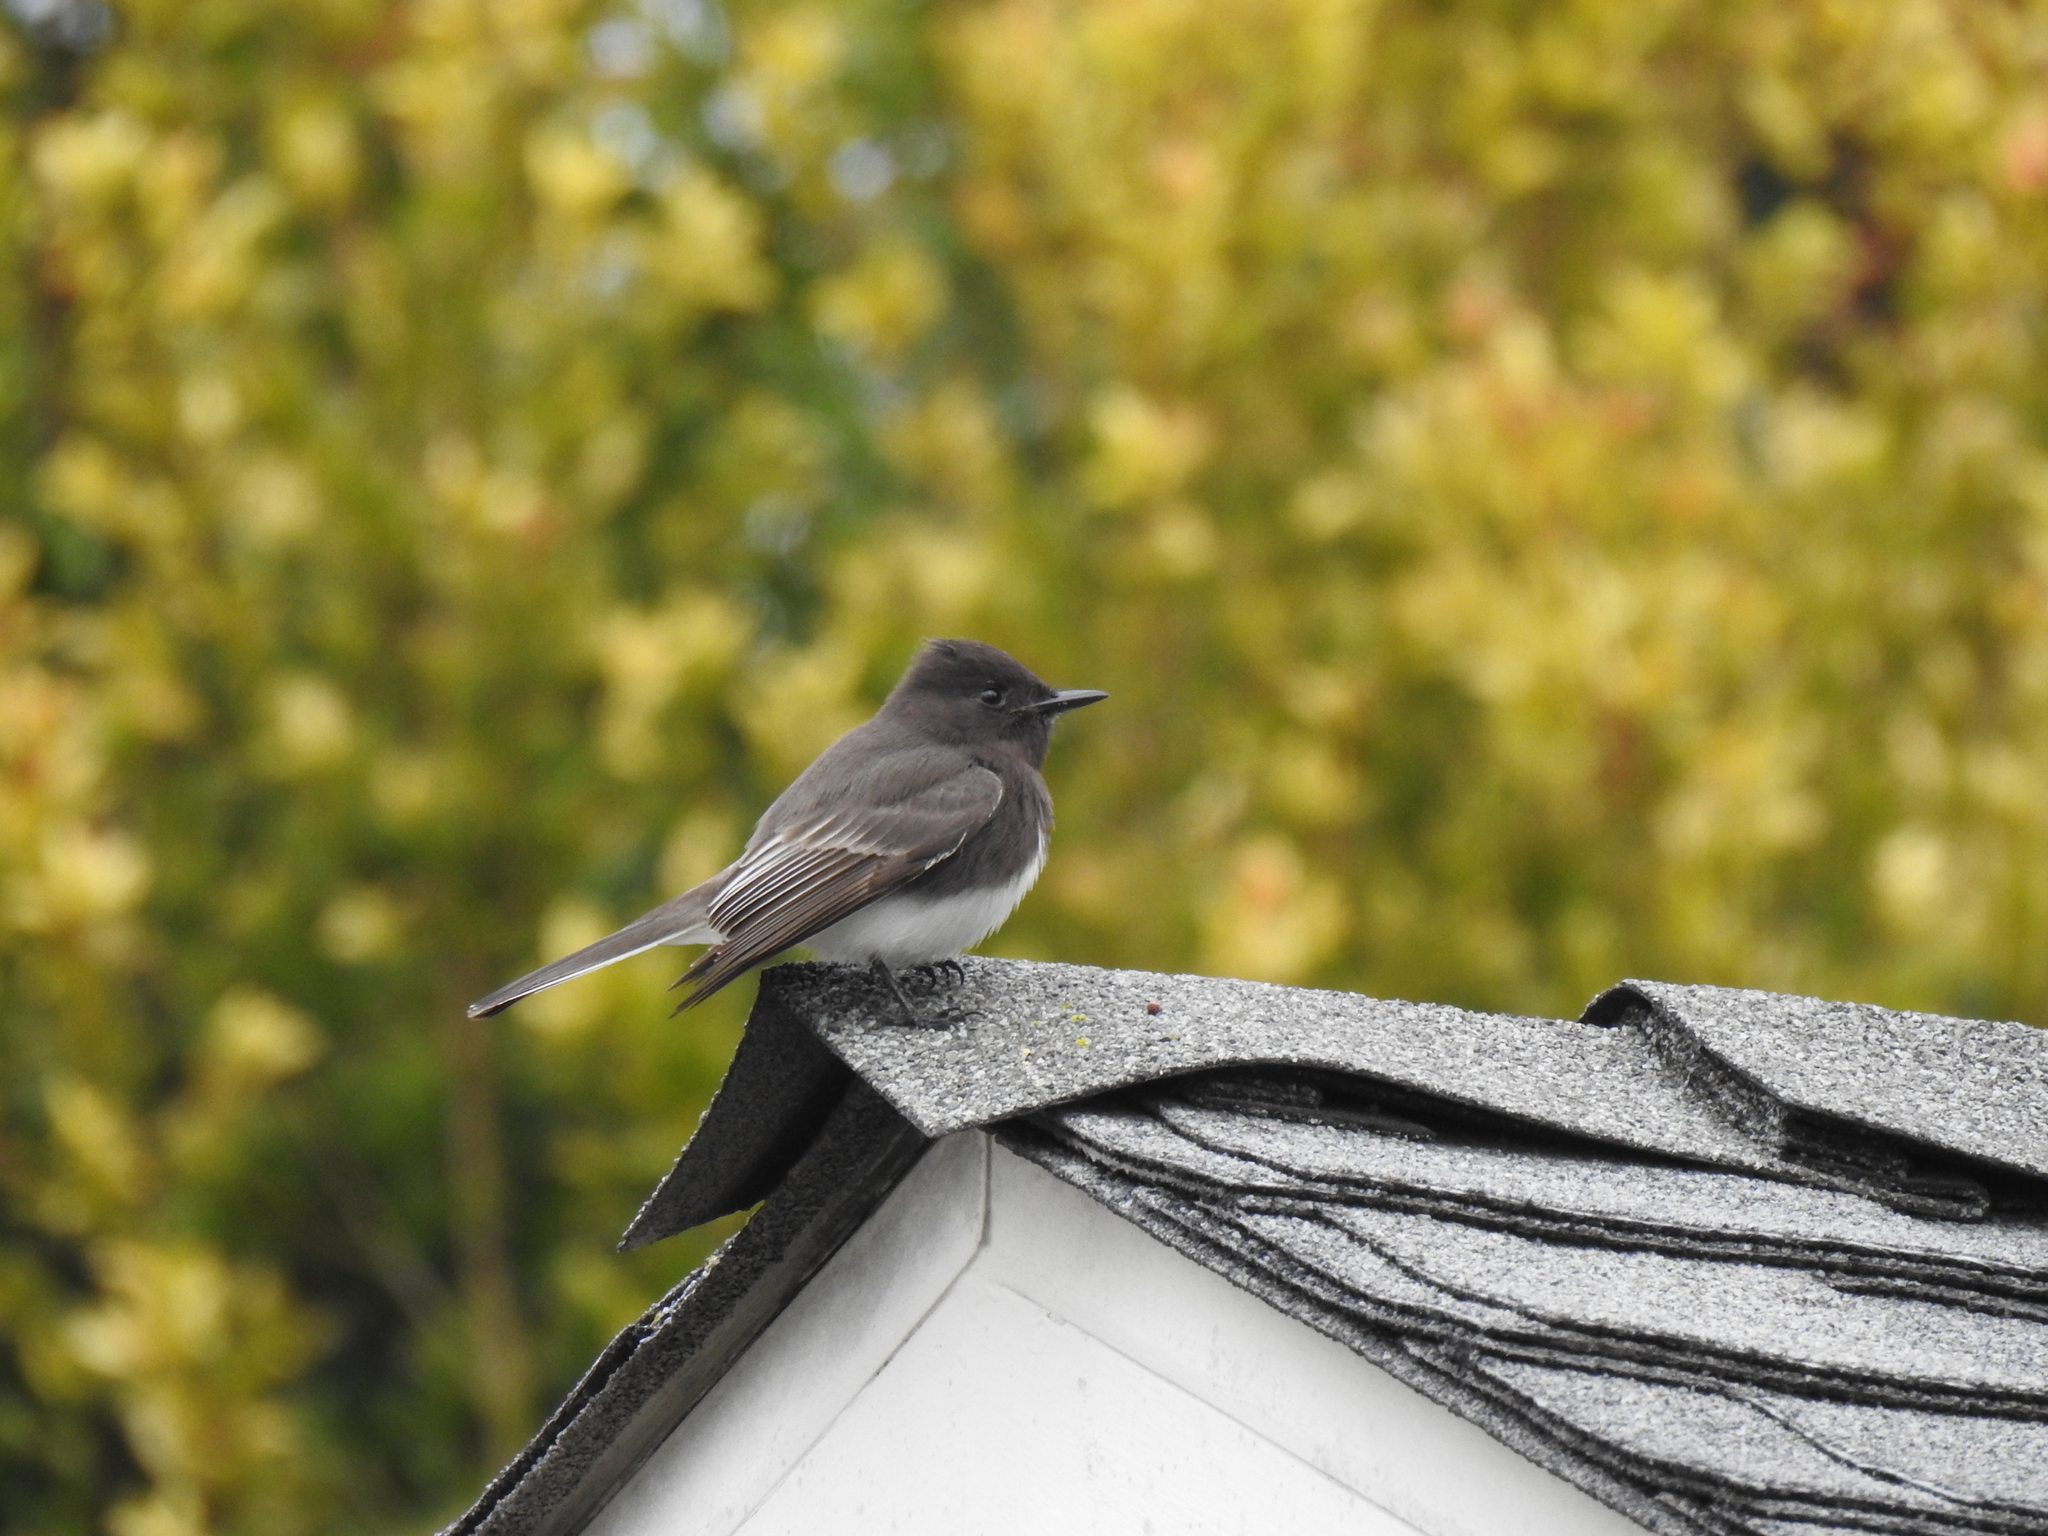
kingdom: Animalia
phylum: Chordata
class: Aves
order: Passeriformes
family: Tyrannidae
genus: Sayornis
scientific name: Sayornis nigricans
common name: Black phoebe
